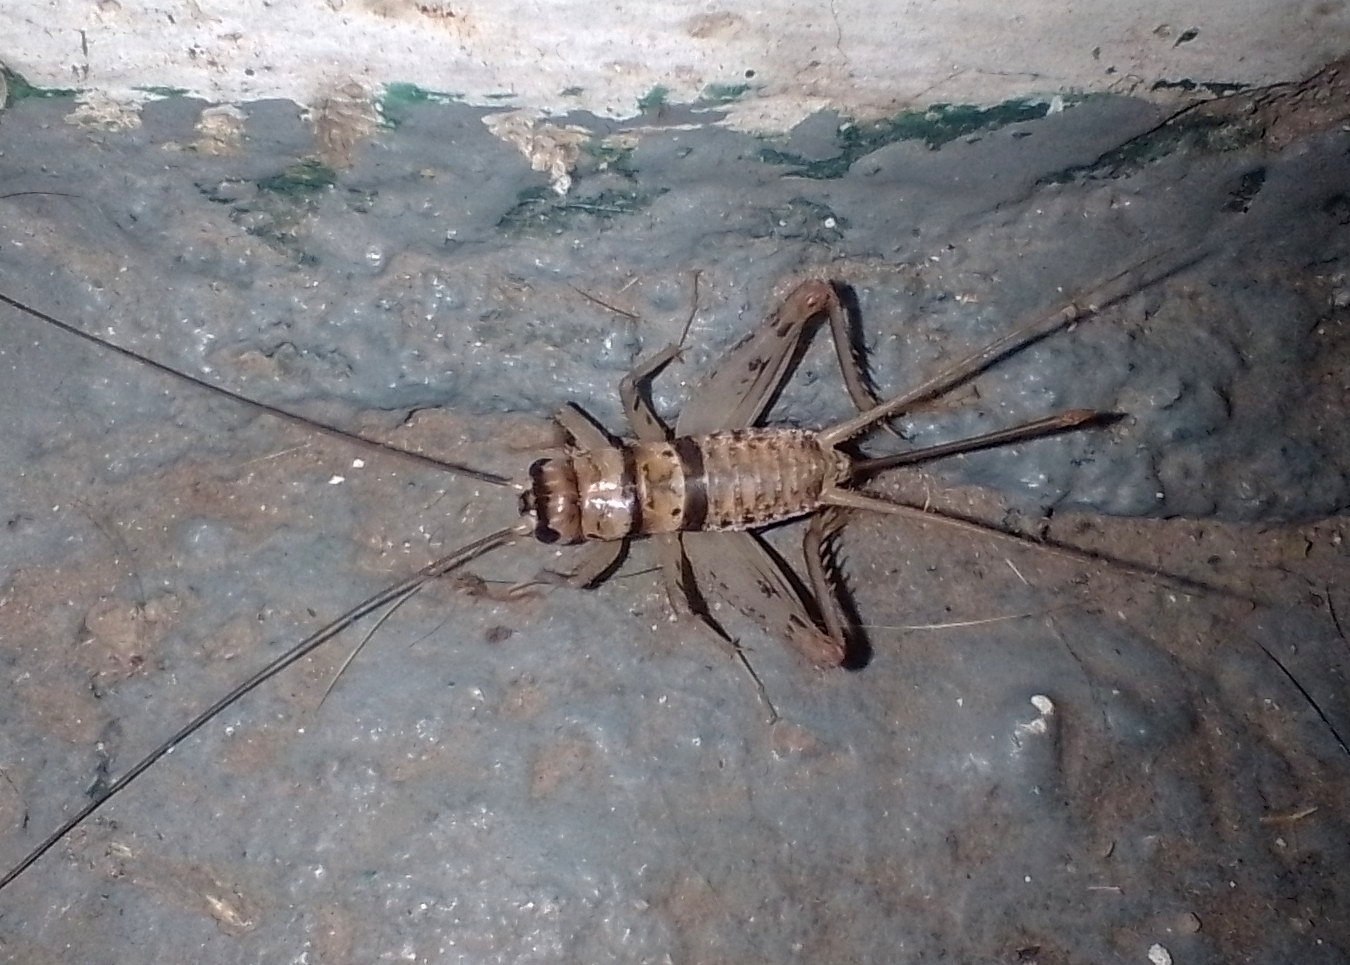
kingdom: Animalia
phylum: Arthropoda
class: Insecta
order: Orthoptera
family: Gryllidae
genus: Gryllodes
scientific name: Gryllodes sigillatus
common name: Tropical house cricket
